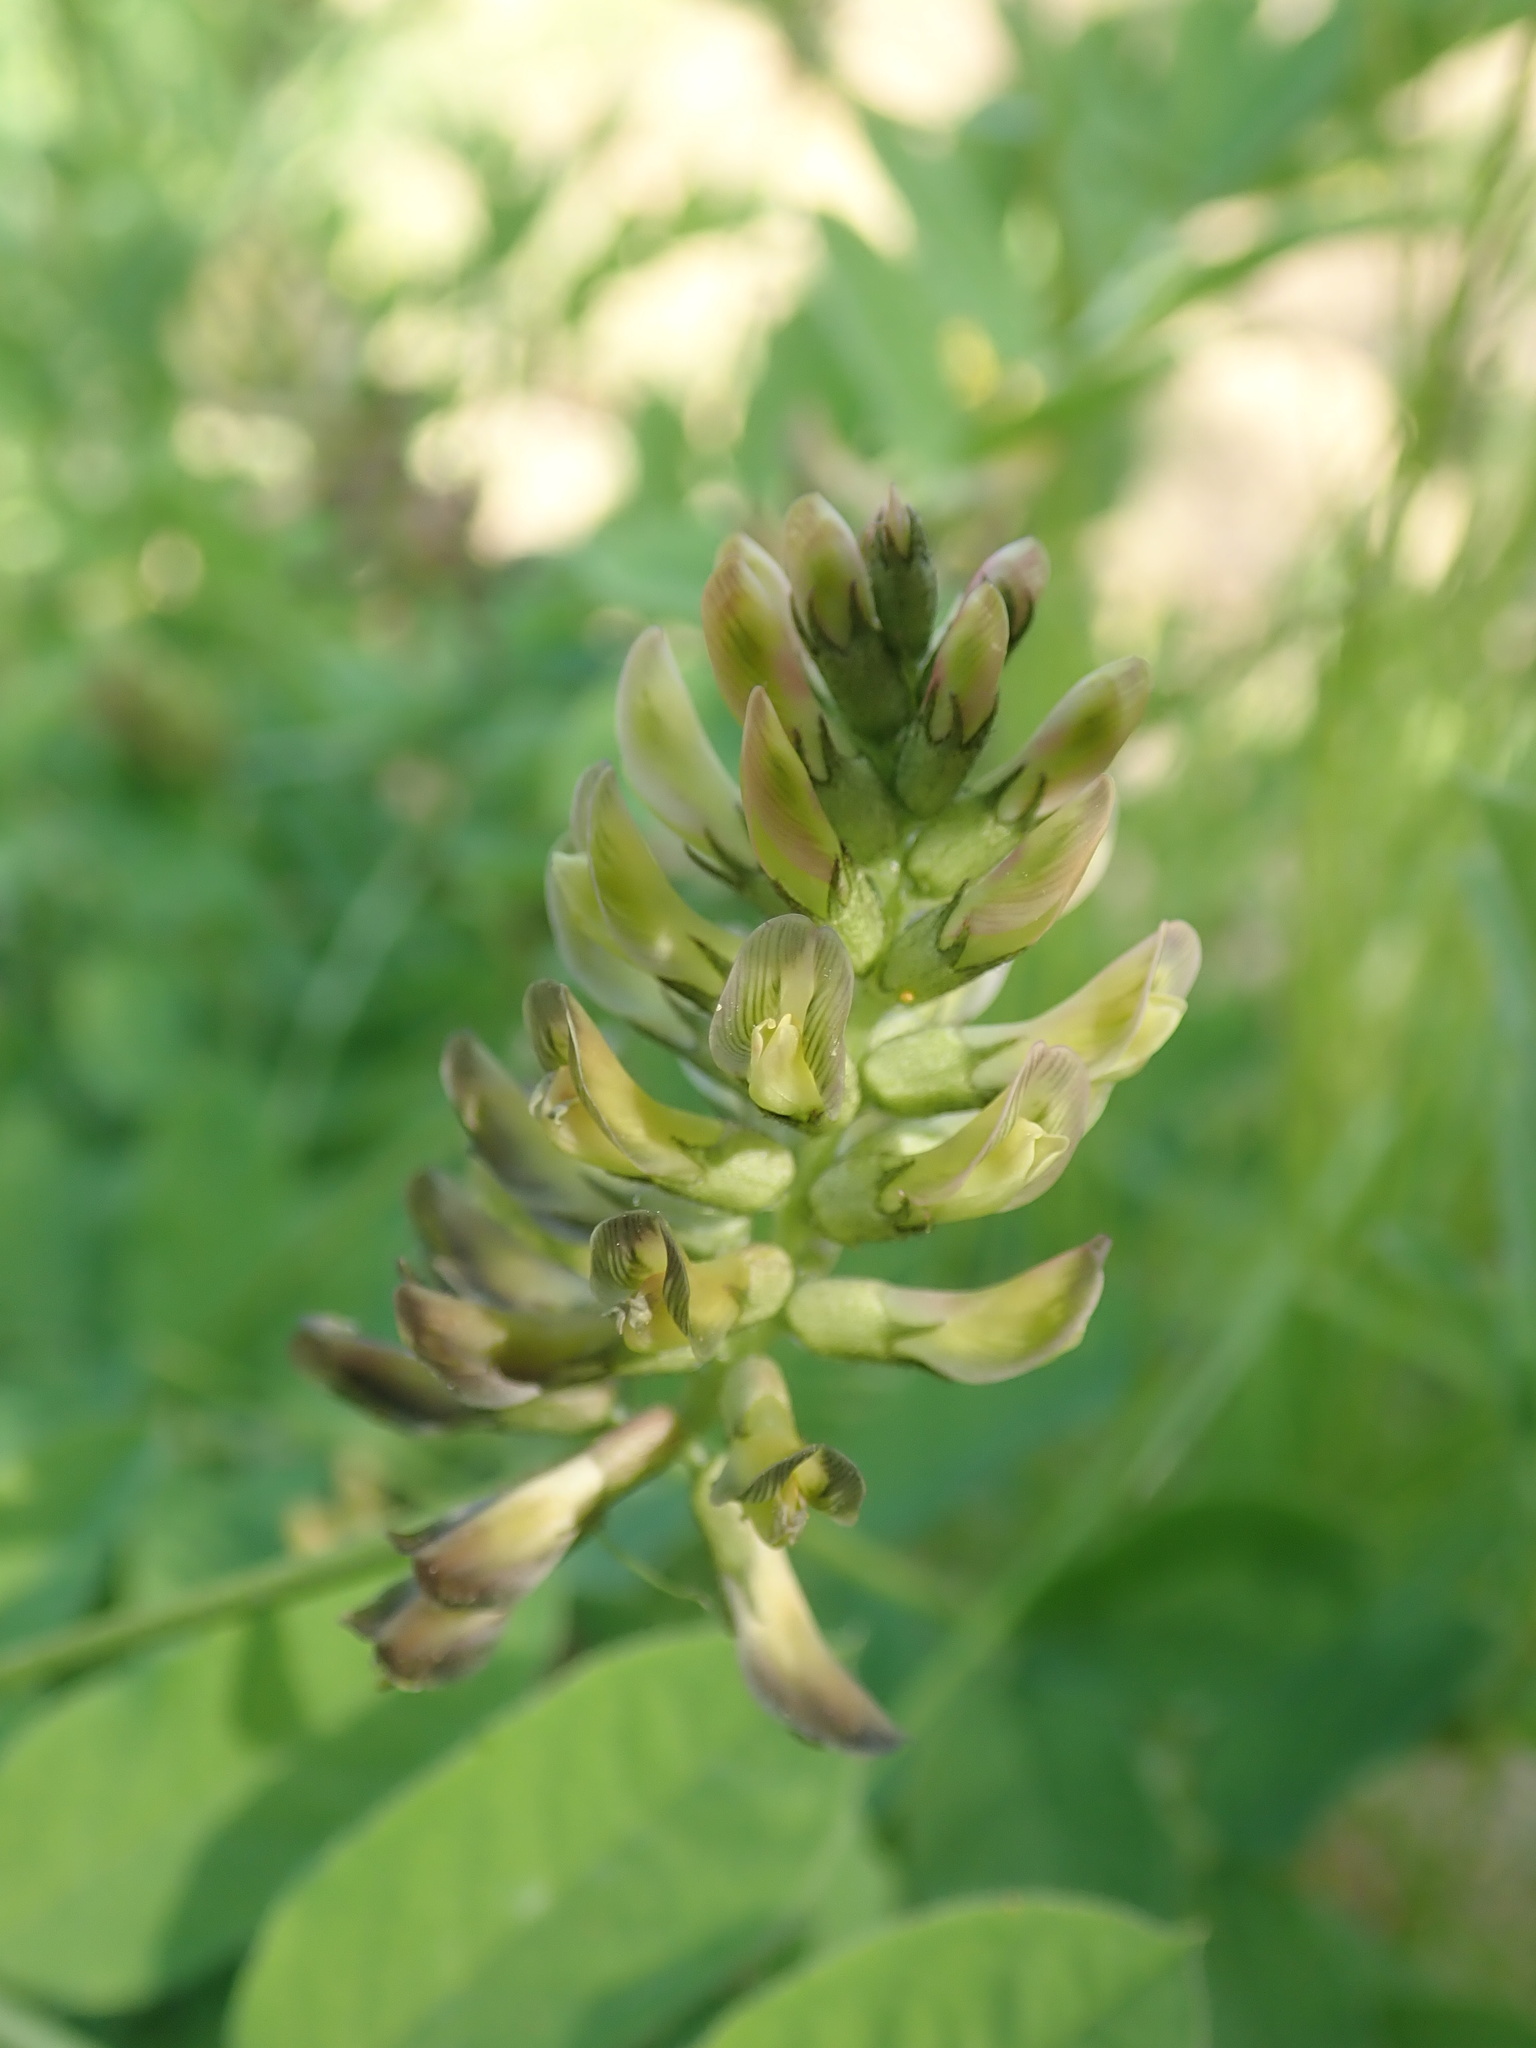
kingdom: Plantae
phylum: Tracheophyta
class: Magnoliopsida
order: Fabales
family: Fabaceae
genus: Astragalus
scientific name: Astragalus glycyphyllos
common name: Wild liquorice
